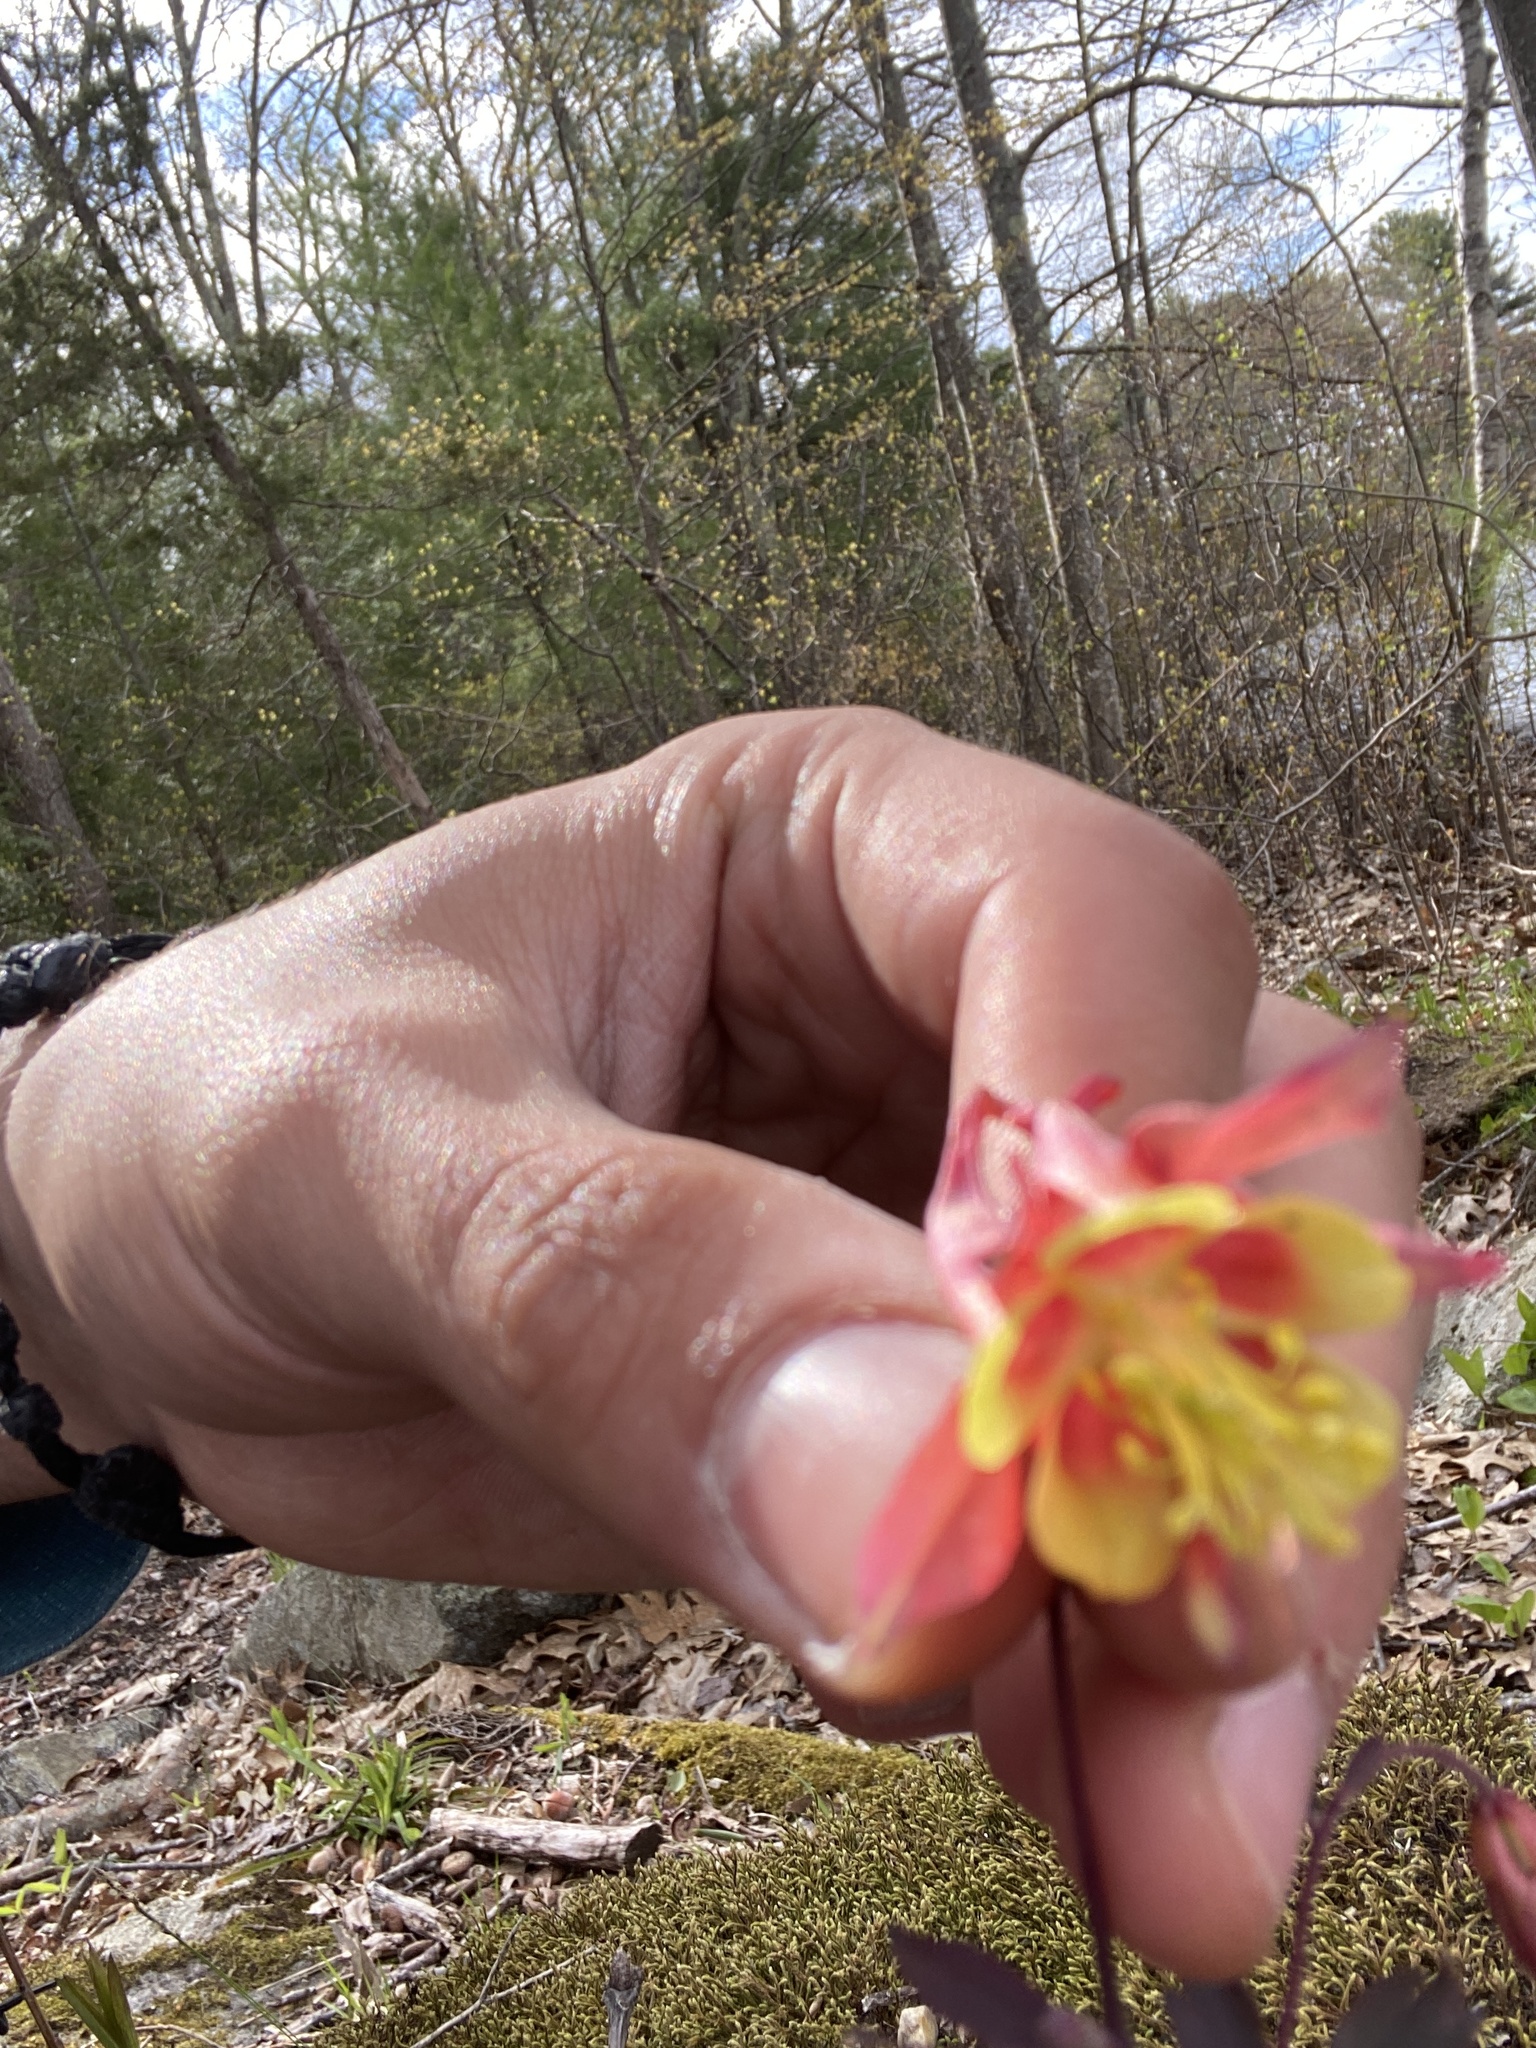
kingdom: Plantae
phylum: Tracheophyta
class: Magnoliopsida
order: Ranunculales
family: Ranunculaceae
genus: Aquilegia
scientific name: Aquilegia canadensis
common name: American columbine
